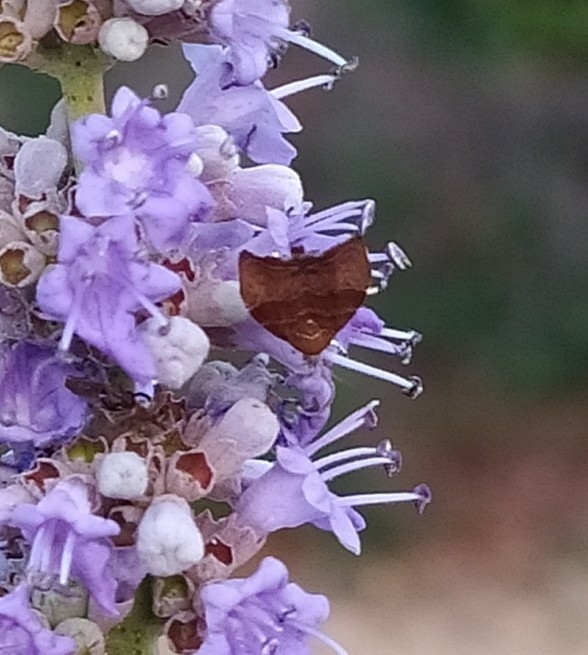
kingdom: Animalia
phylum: Arthropoda
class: Insecta
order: Lepidoptera
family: Choreutidae
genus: Anthophila
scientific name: Anthophila nemorana
